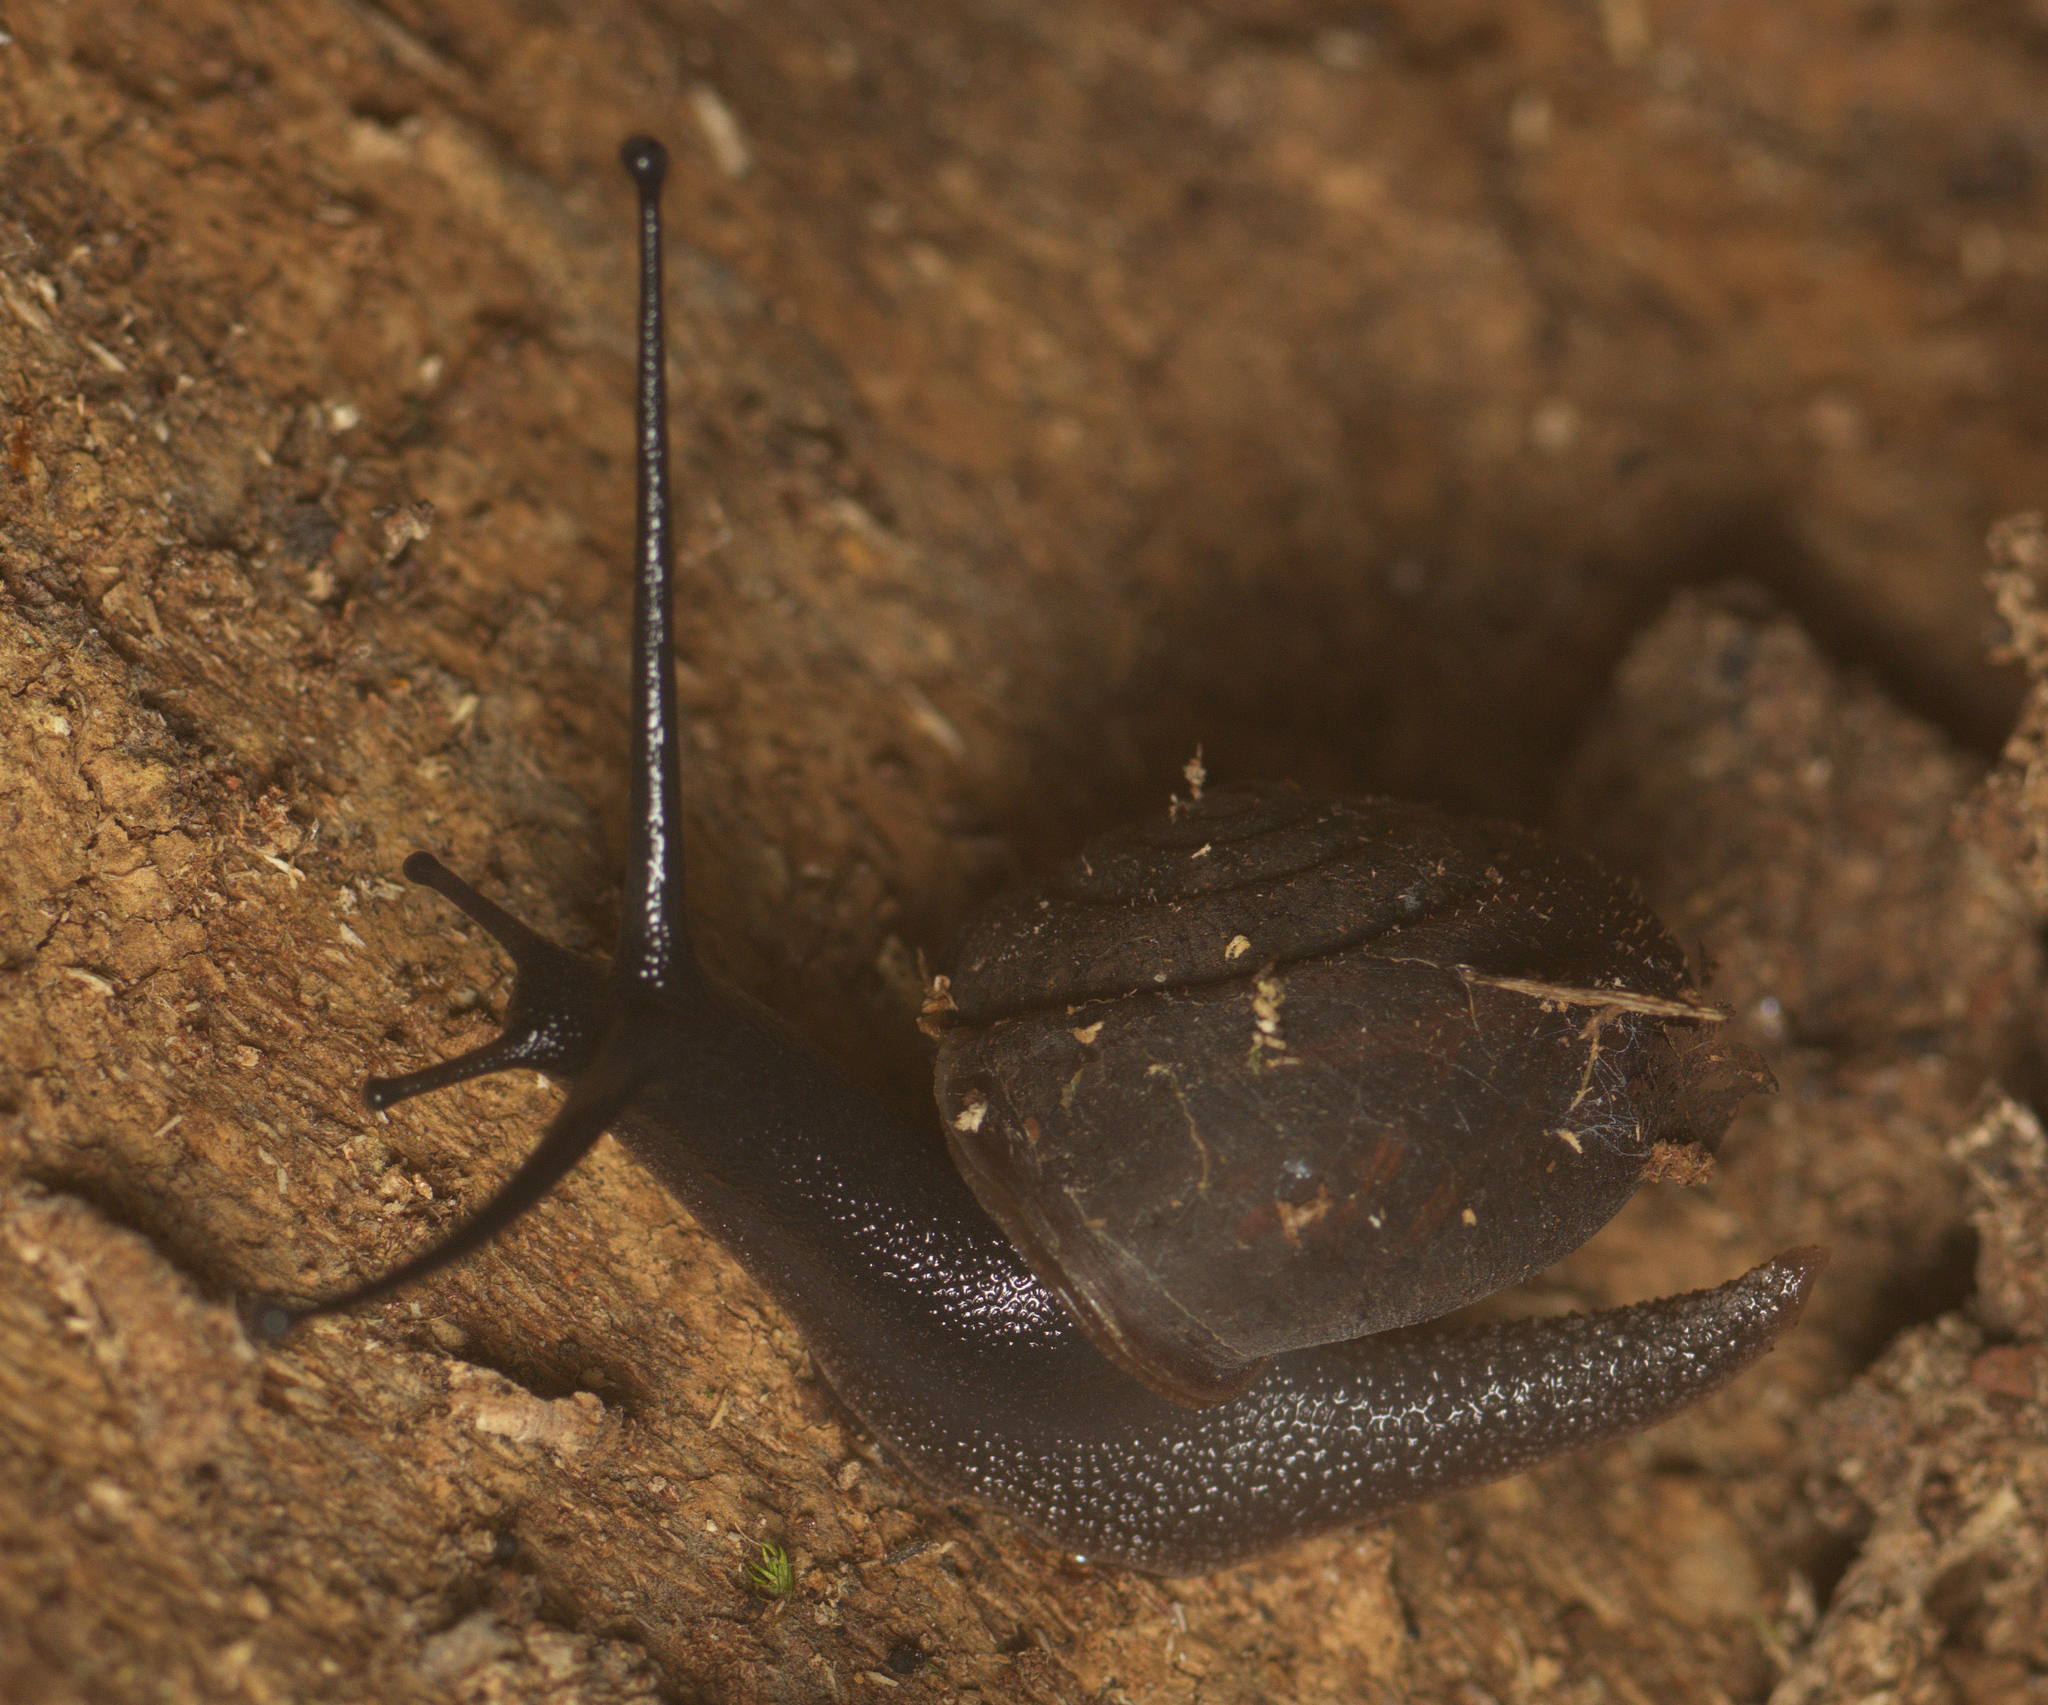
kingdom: Animalia
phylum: Mollusca
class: Gastropoda
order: Stylommatophora
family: Camaenidae
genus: Ramogenia
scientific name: Ramogenia challengeri
